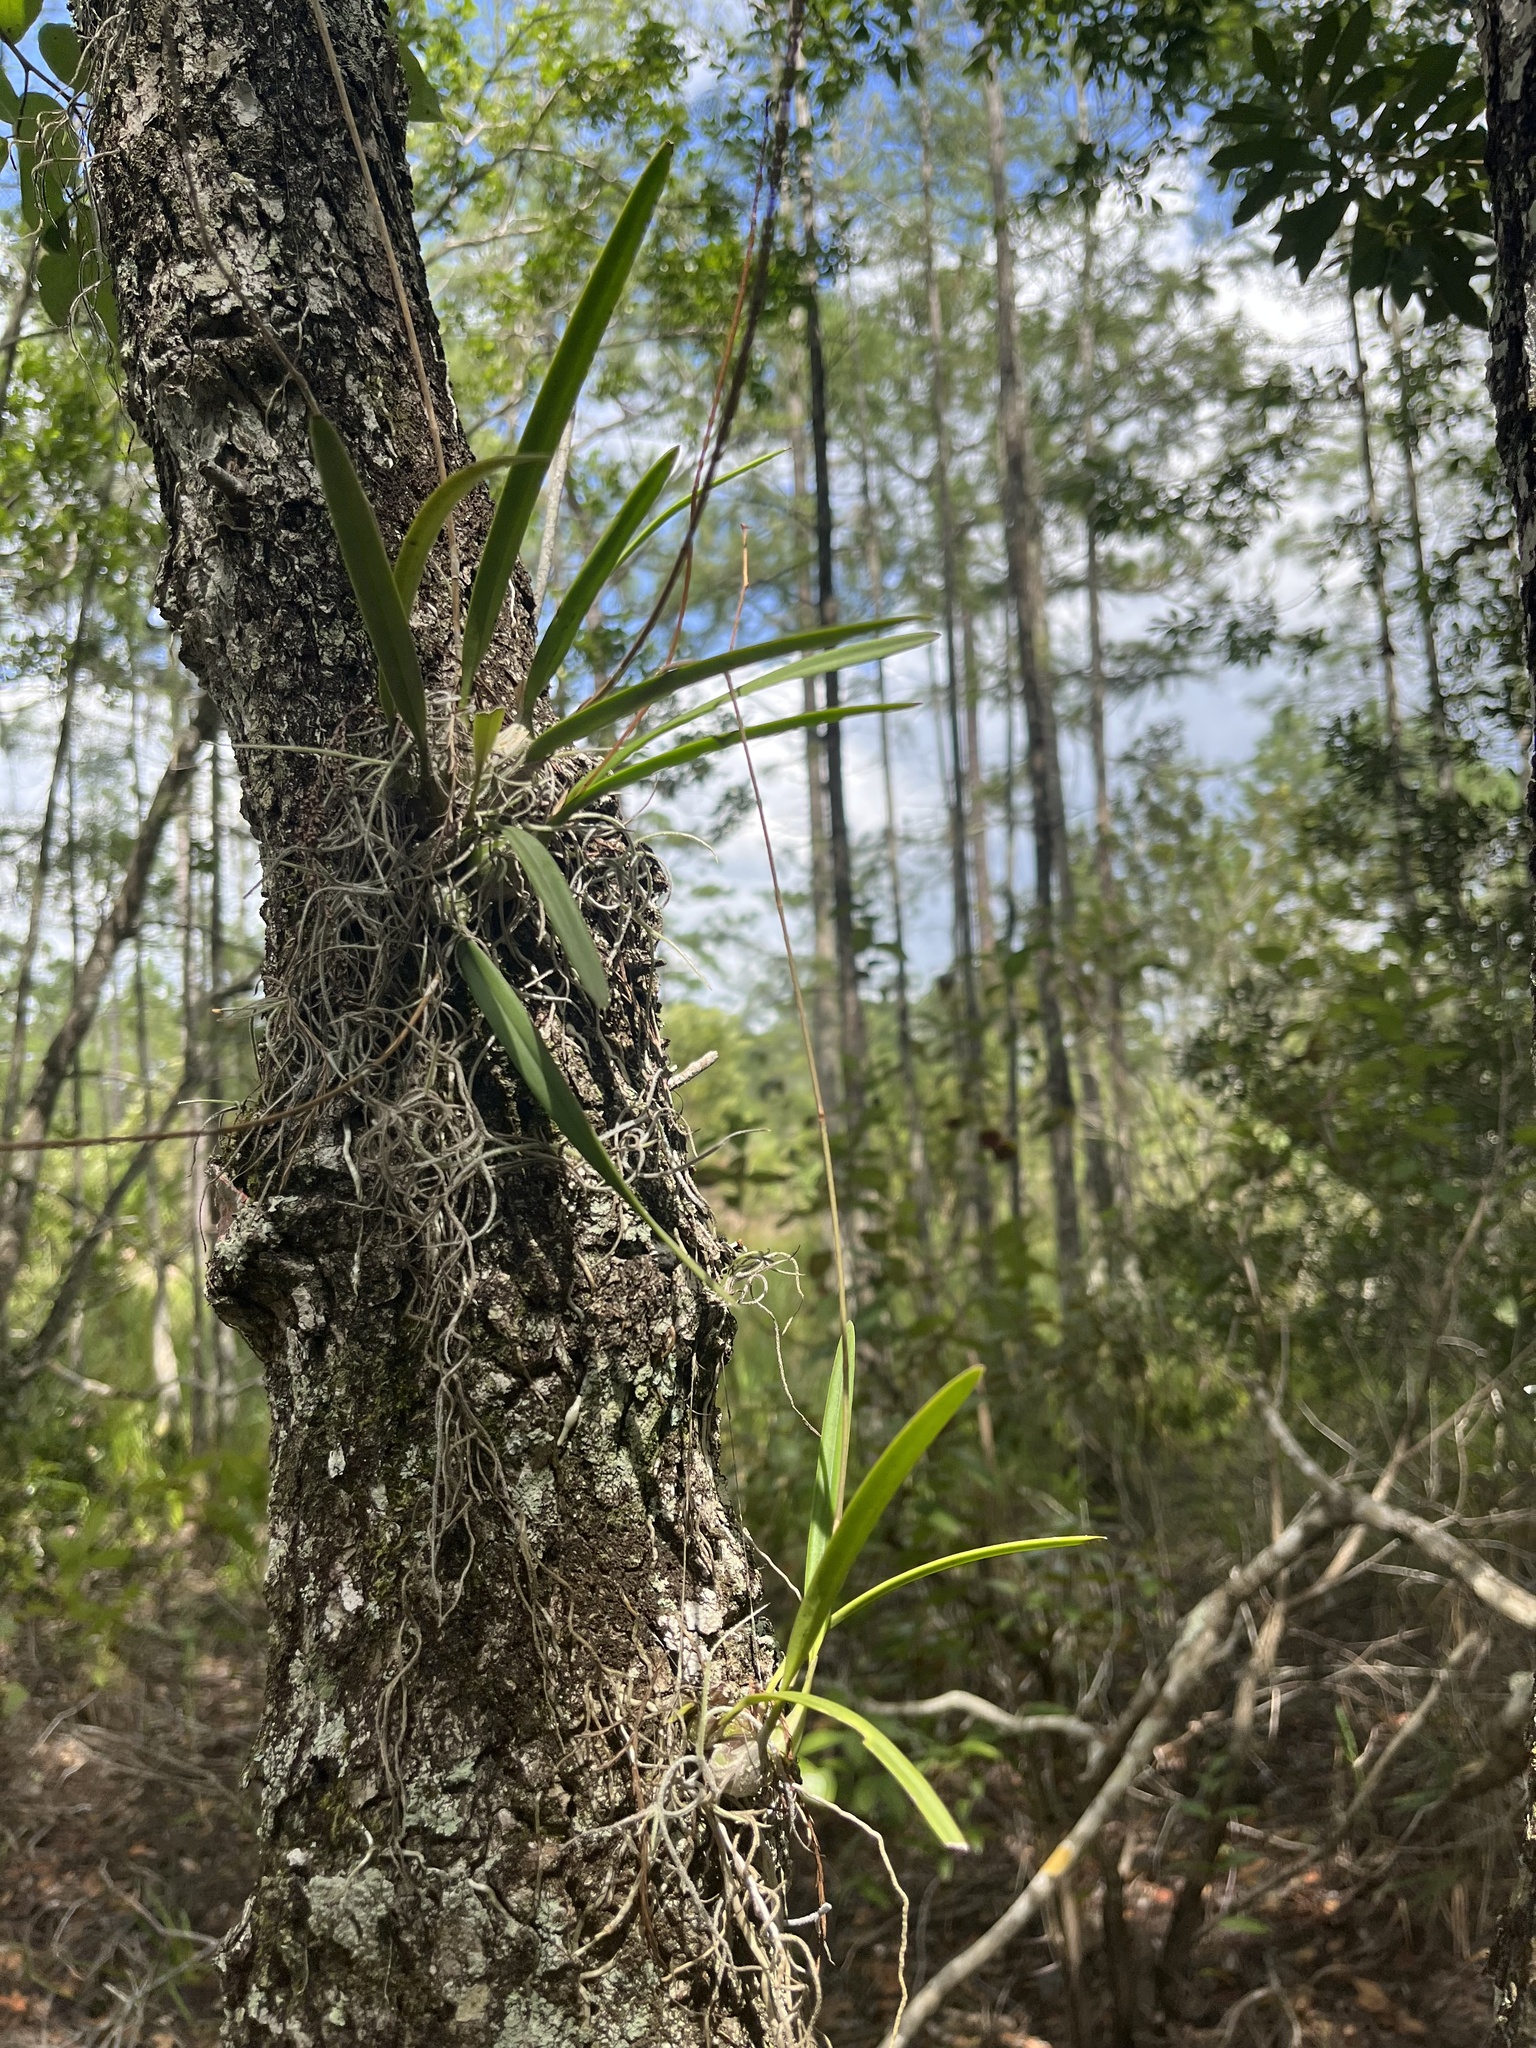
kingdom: Plantae
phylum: Tracheophyta
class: Liliopsida
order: Asparagales
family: Orchidaceae
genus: Encyclia
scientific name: Encyclia tampensis
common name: Florida butterfly orchid
